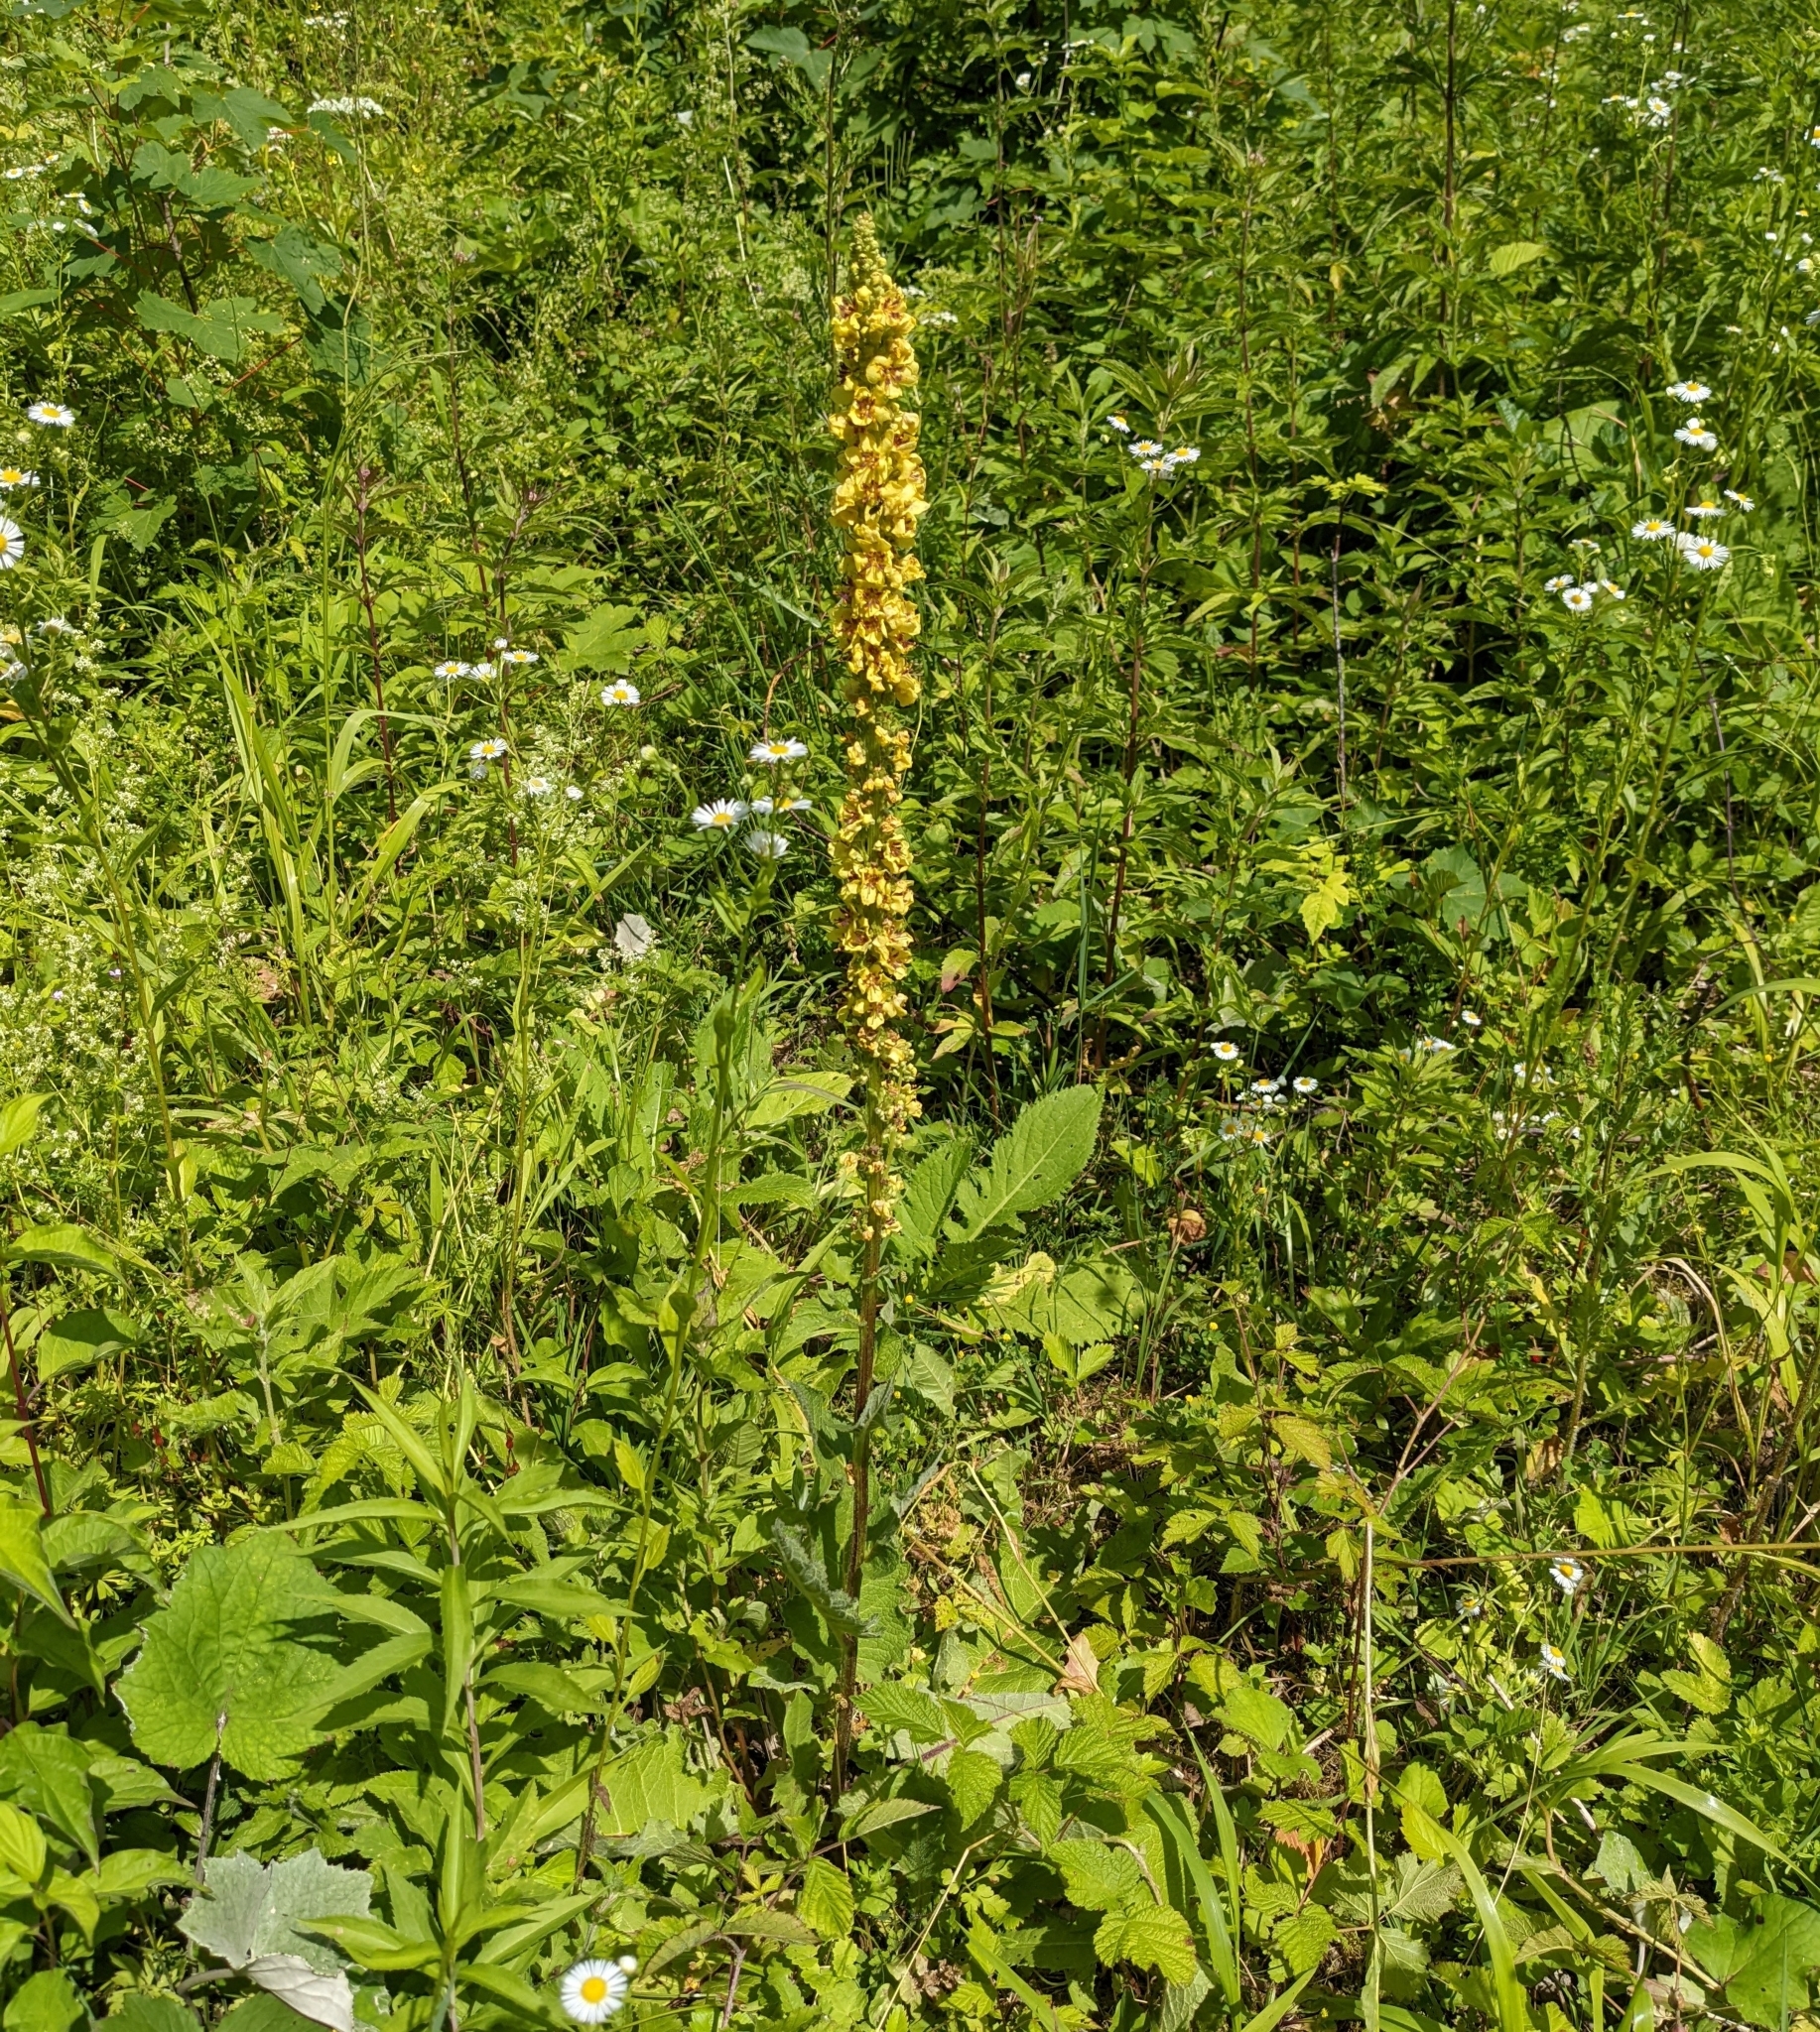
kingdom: Plantae
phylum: Tracheophyta
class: Magnoliopsida
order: Lamiales
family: Scrophulariaceae
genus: Verbascum
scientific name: Verbascum nigrum
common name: Dark mullein
